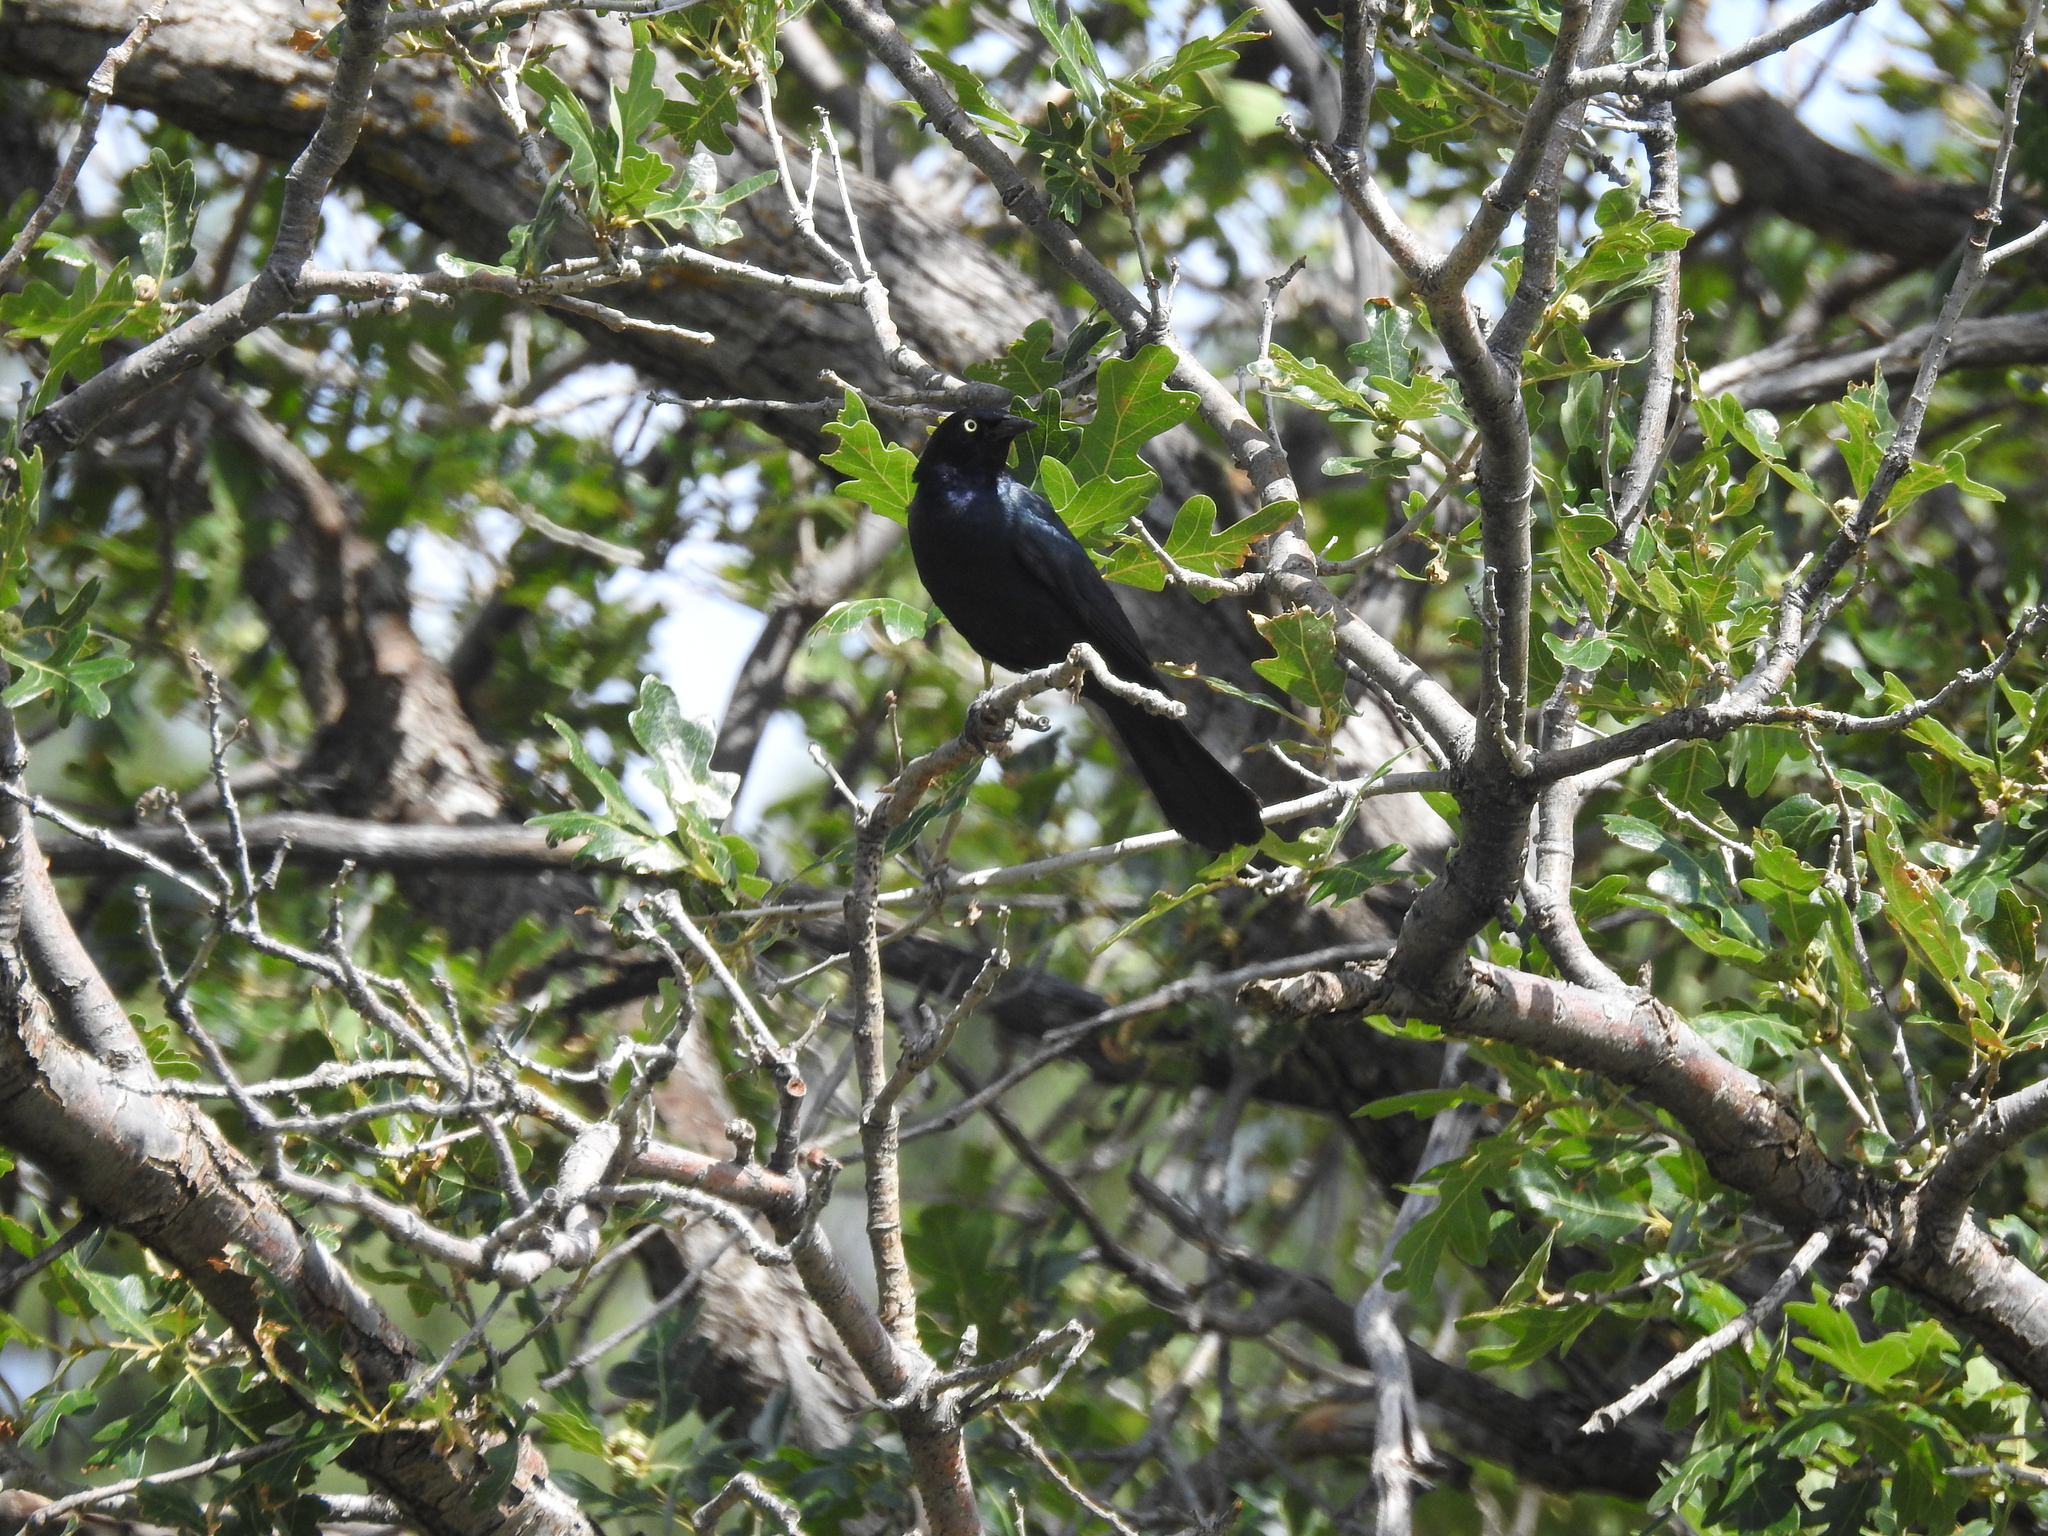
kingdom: Animalia
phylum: Chordata
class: Aves
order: Passeriformes
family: Icteridae
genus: Euphagus
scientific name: Euphagus cyanocephalus
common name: Brewer's blackbird
